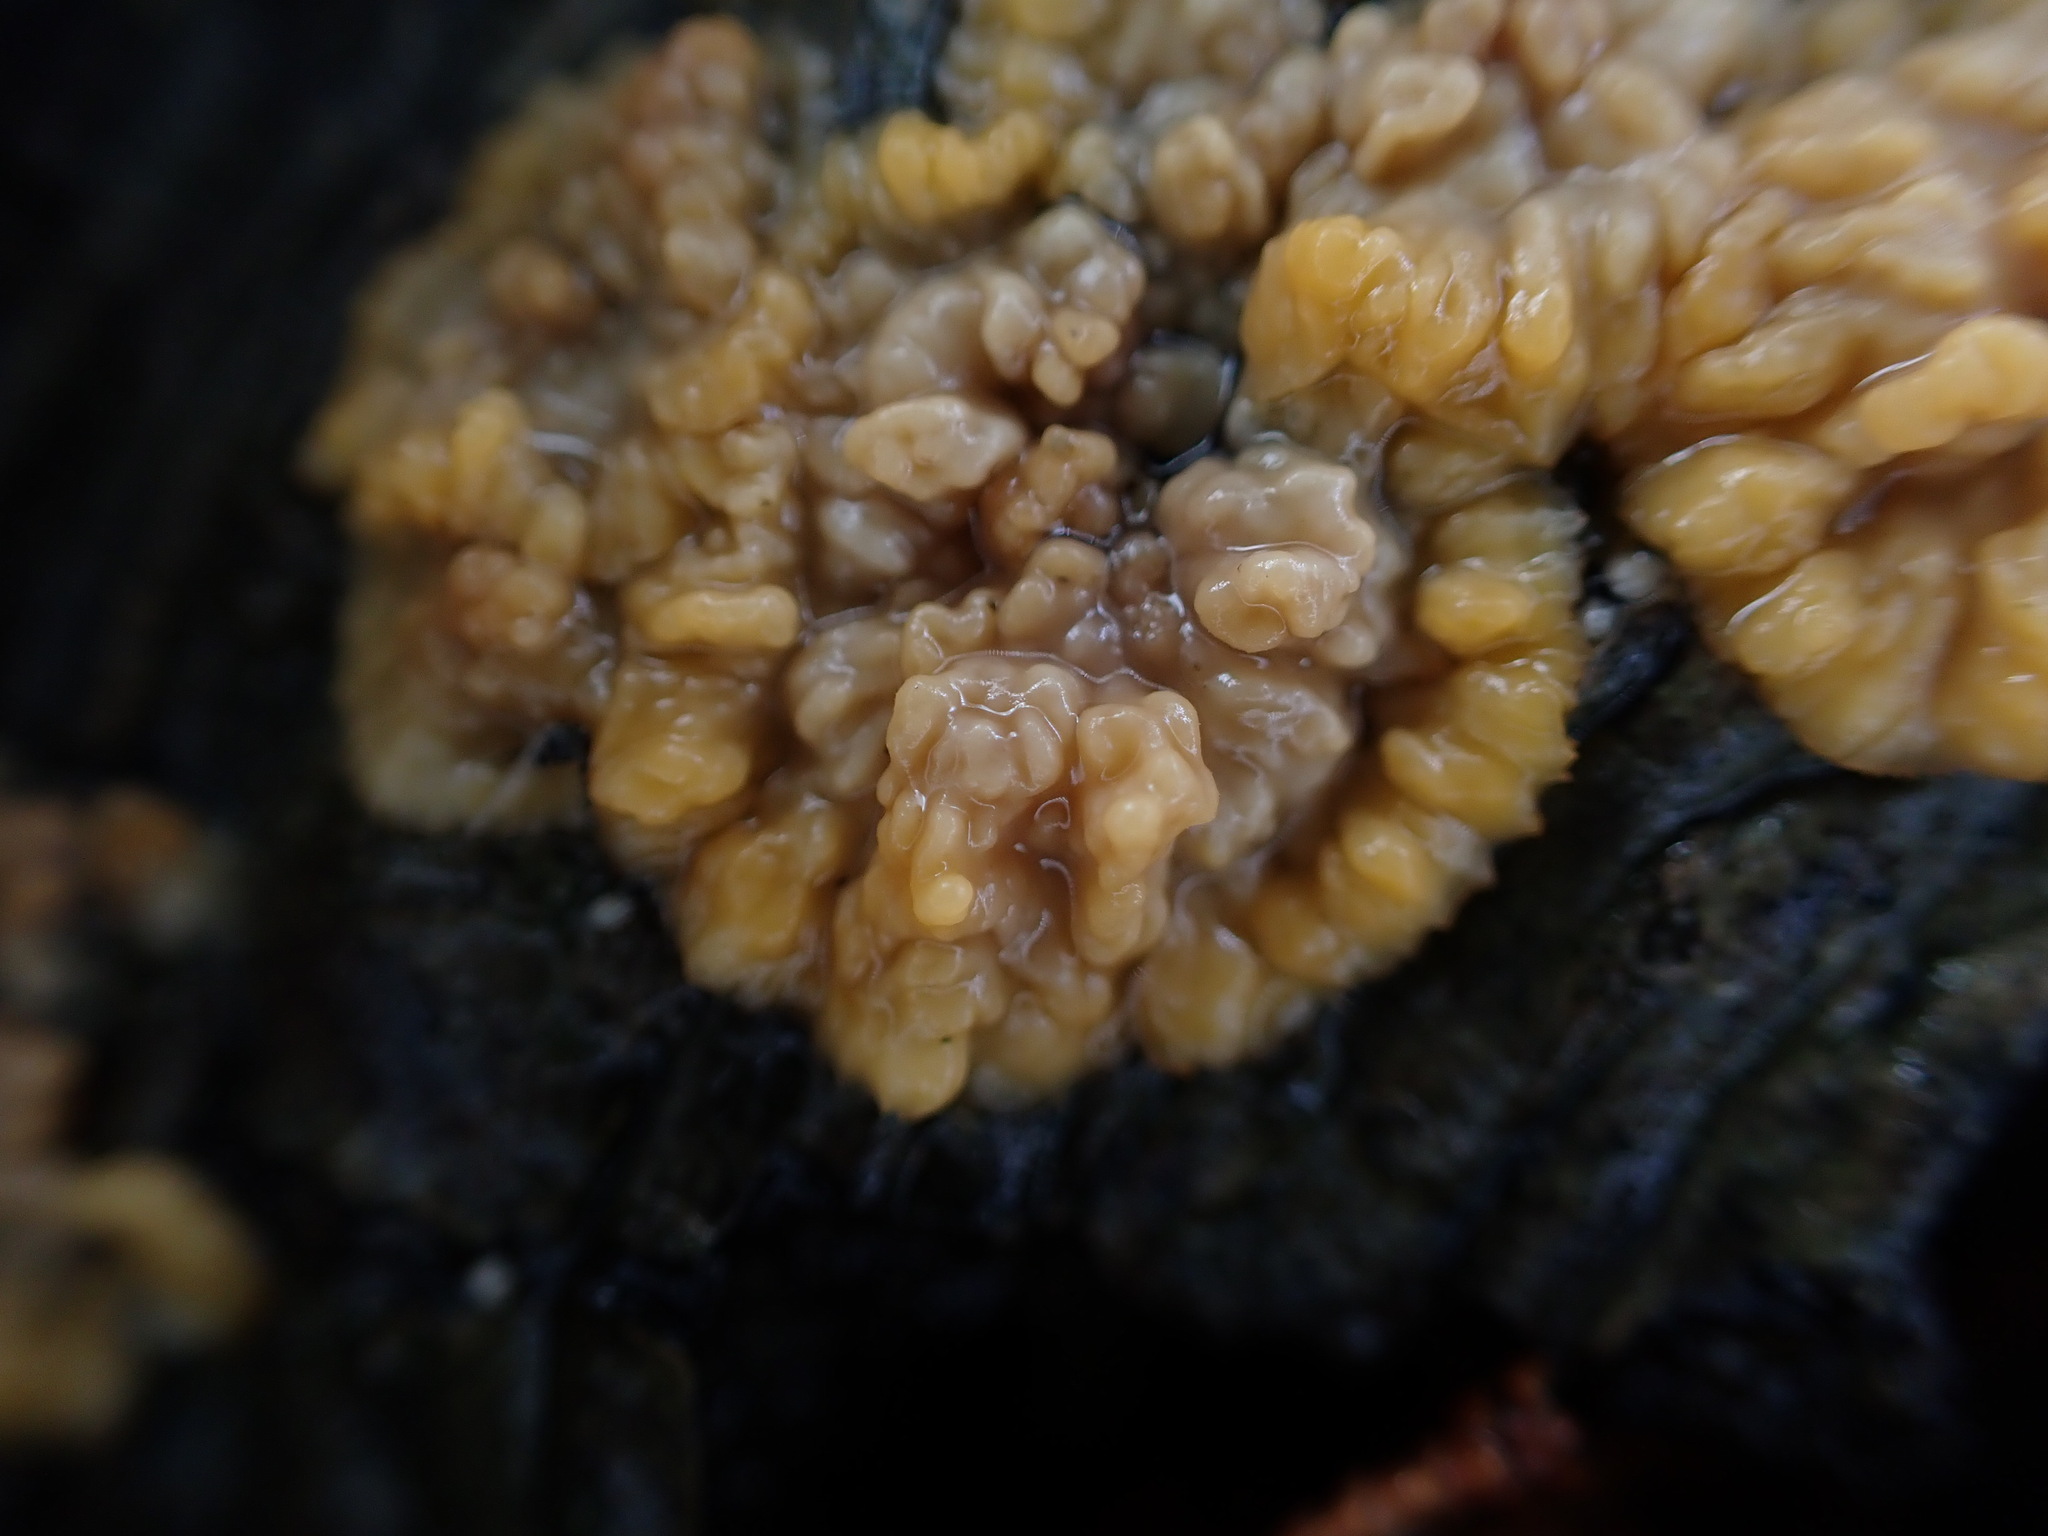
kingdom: Fungi
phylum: Basidiomycota
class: Agaricomycetes
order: Polyporales
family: Meruliaceae
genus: Phlebia
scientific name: Phlebia radiata
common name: Wrinkled crust
